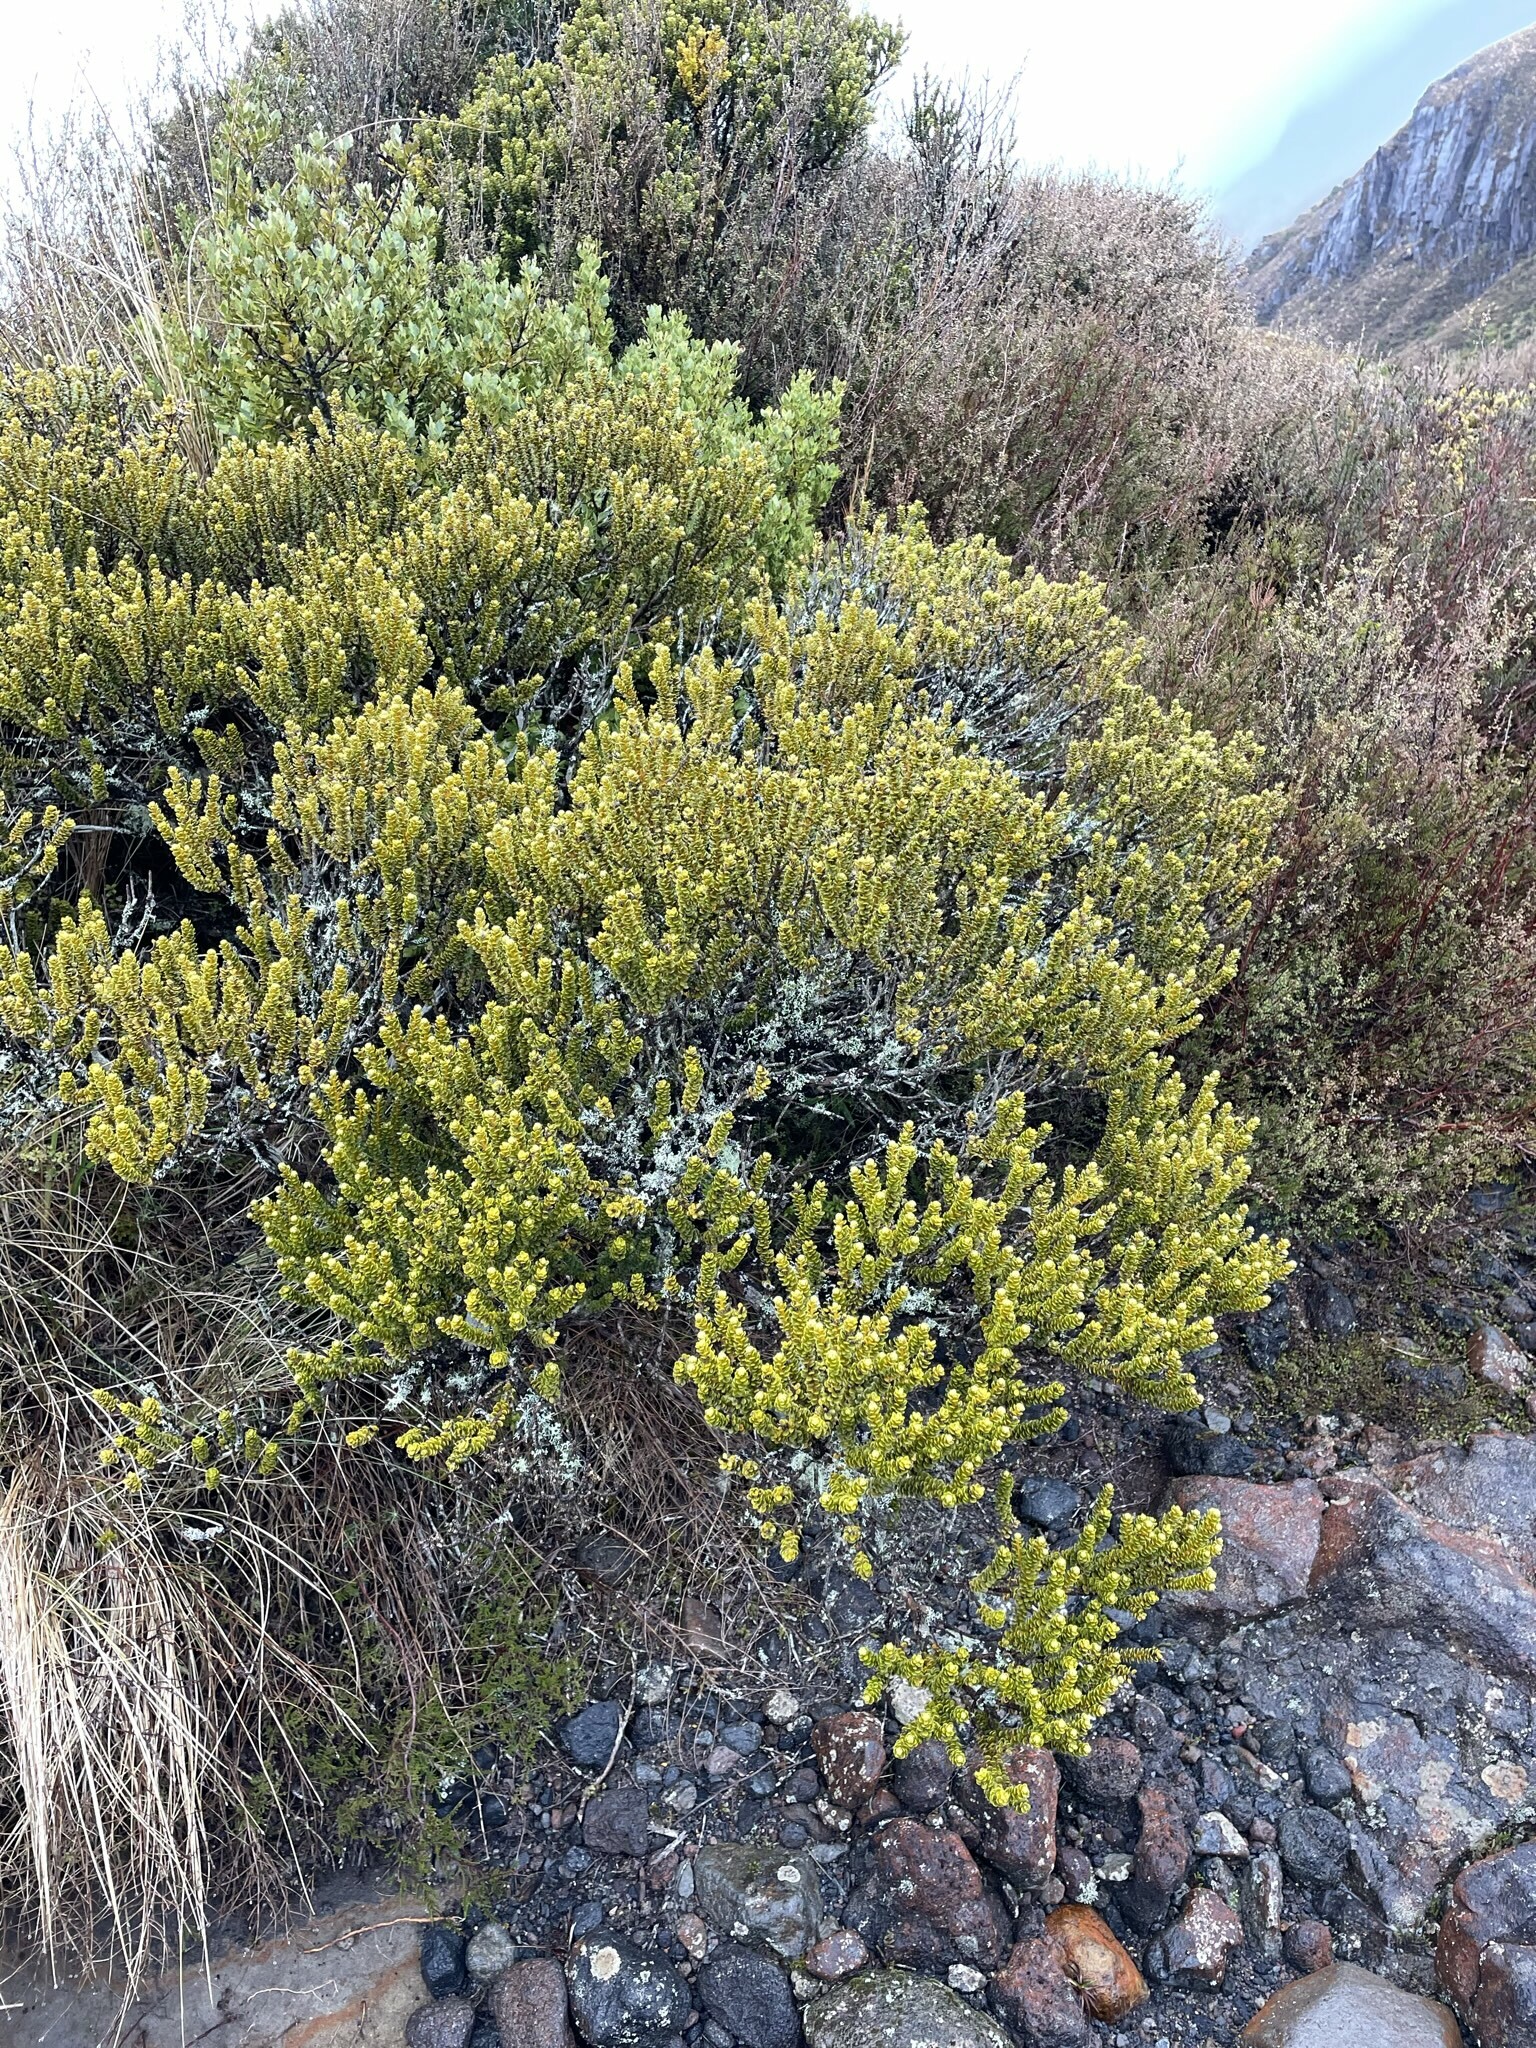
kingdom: Plantae
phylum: Tracheophyta
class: Magnoliopsida
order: Asterales
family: Asteraceae
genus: Olearia
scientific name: Olearia nummularifolia
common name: Sticky daisybush
